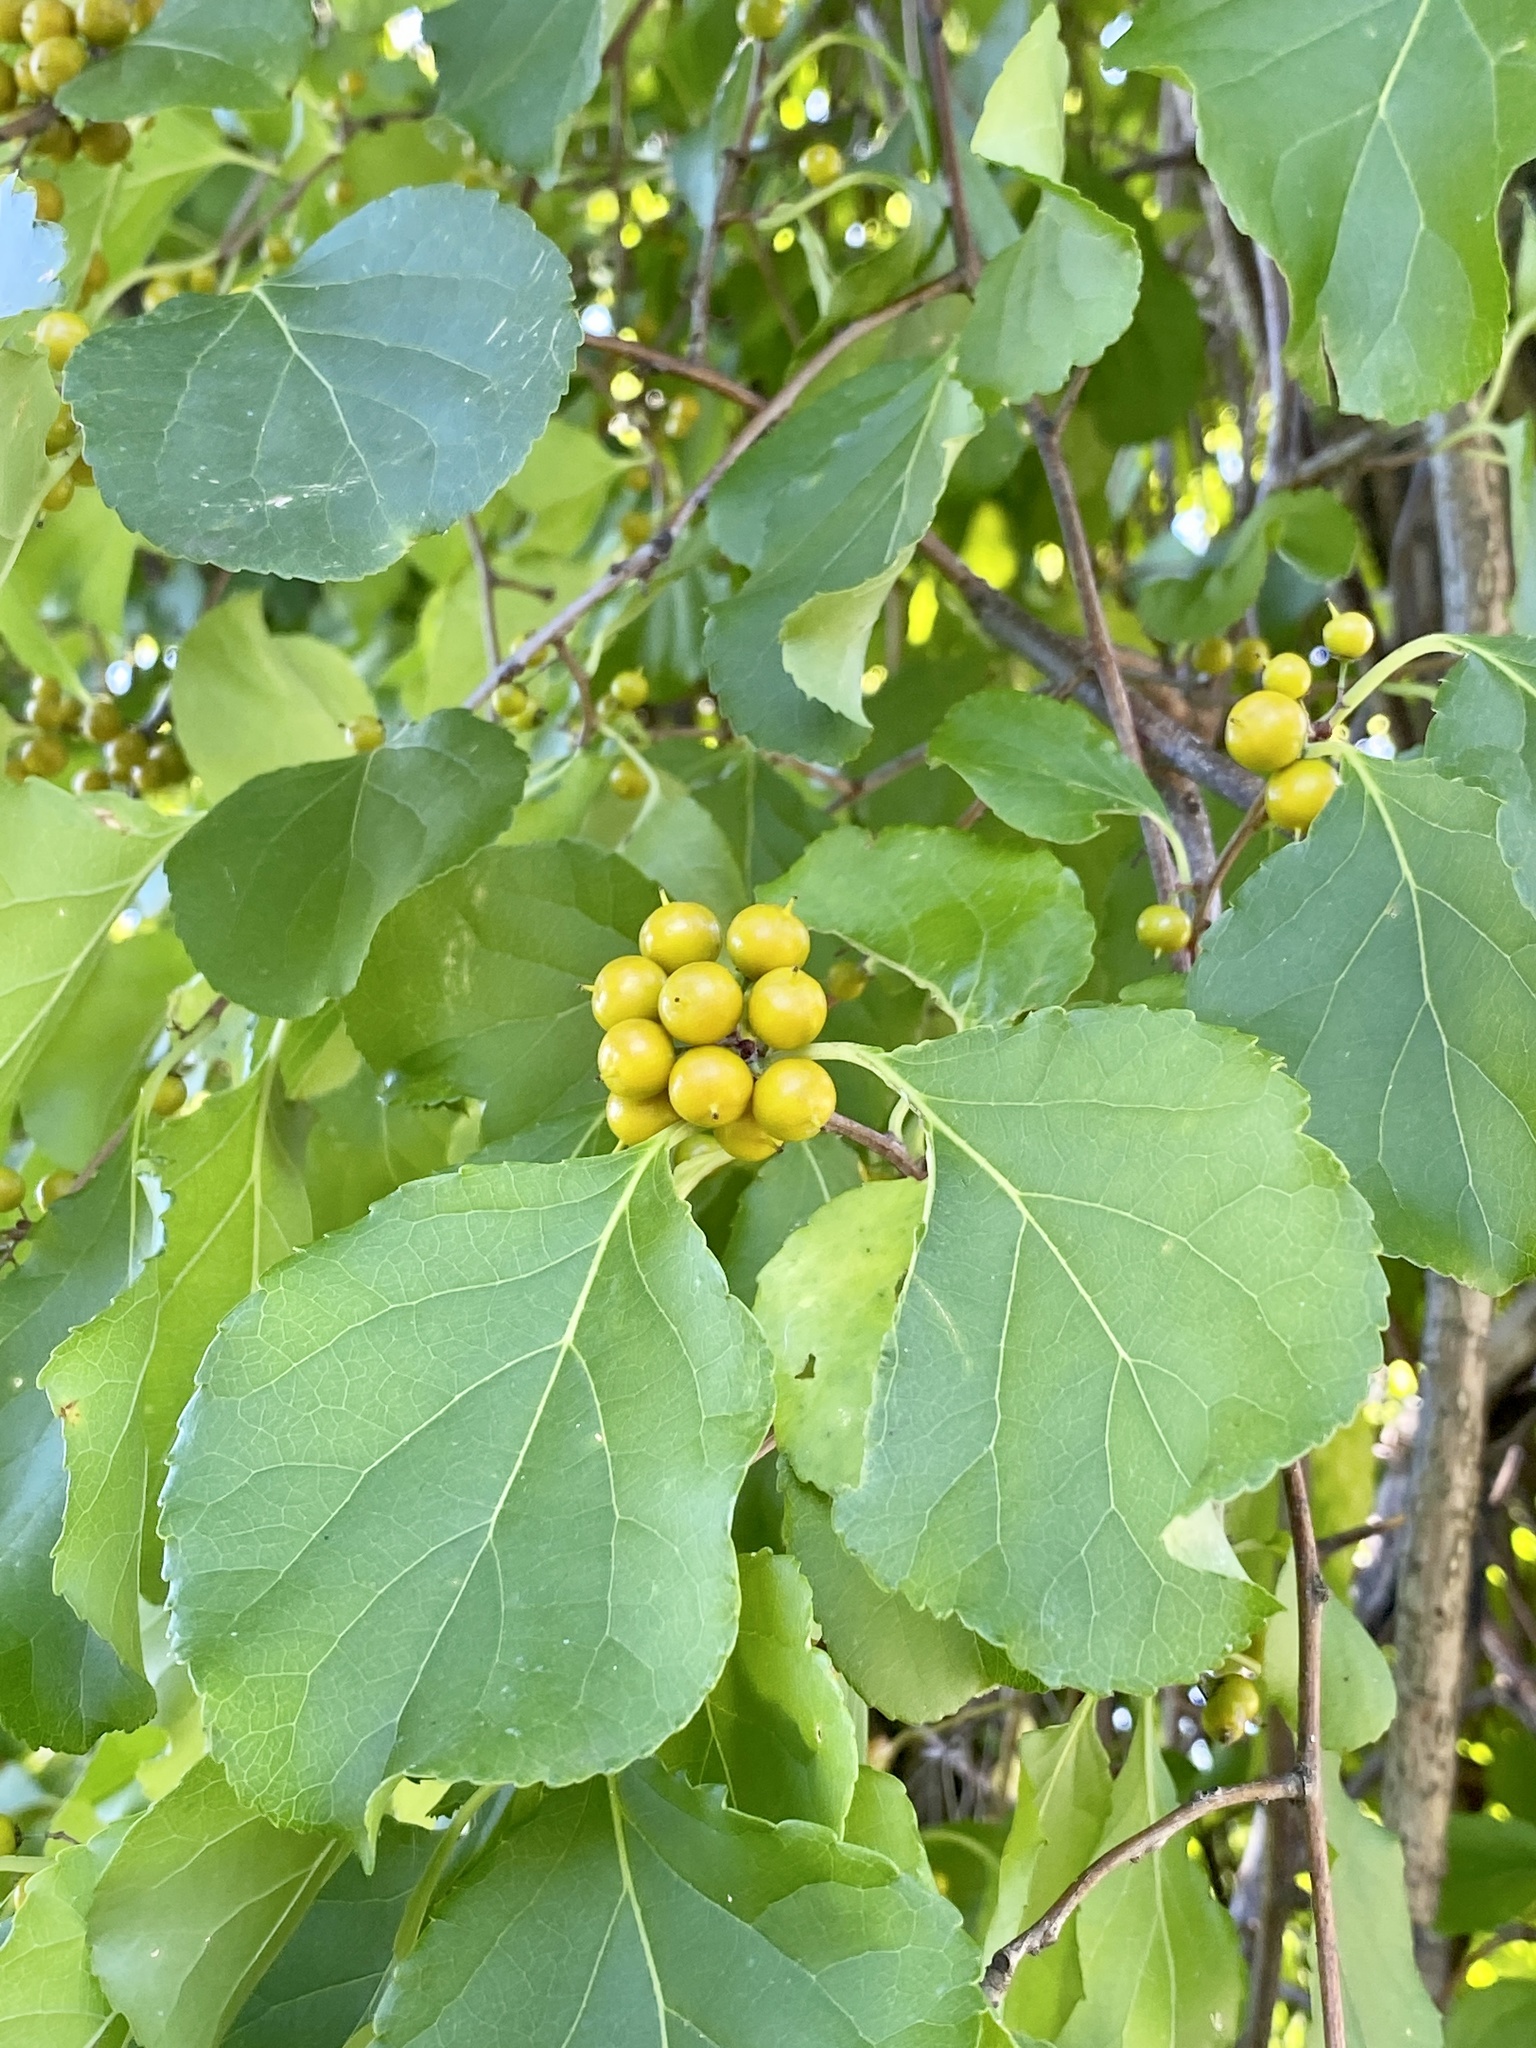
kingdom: Plantae
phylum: Tracheophyta
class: Magnoliopsida
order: Celastrales
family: Celastraceae
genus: Celastrus
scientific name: Celastrus orbiculatus
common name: Oriental bittersweet
